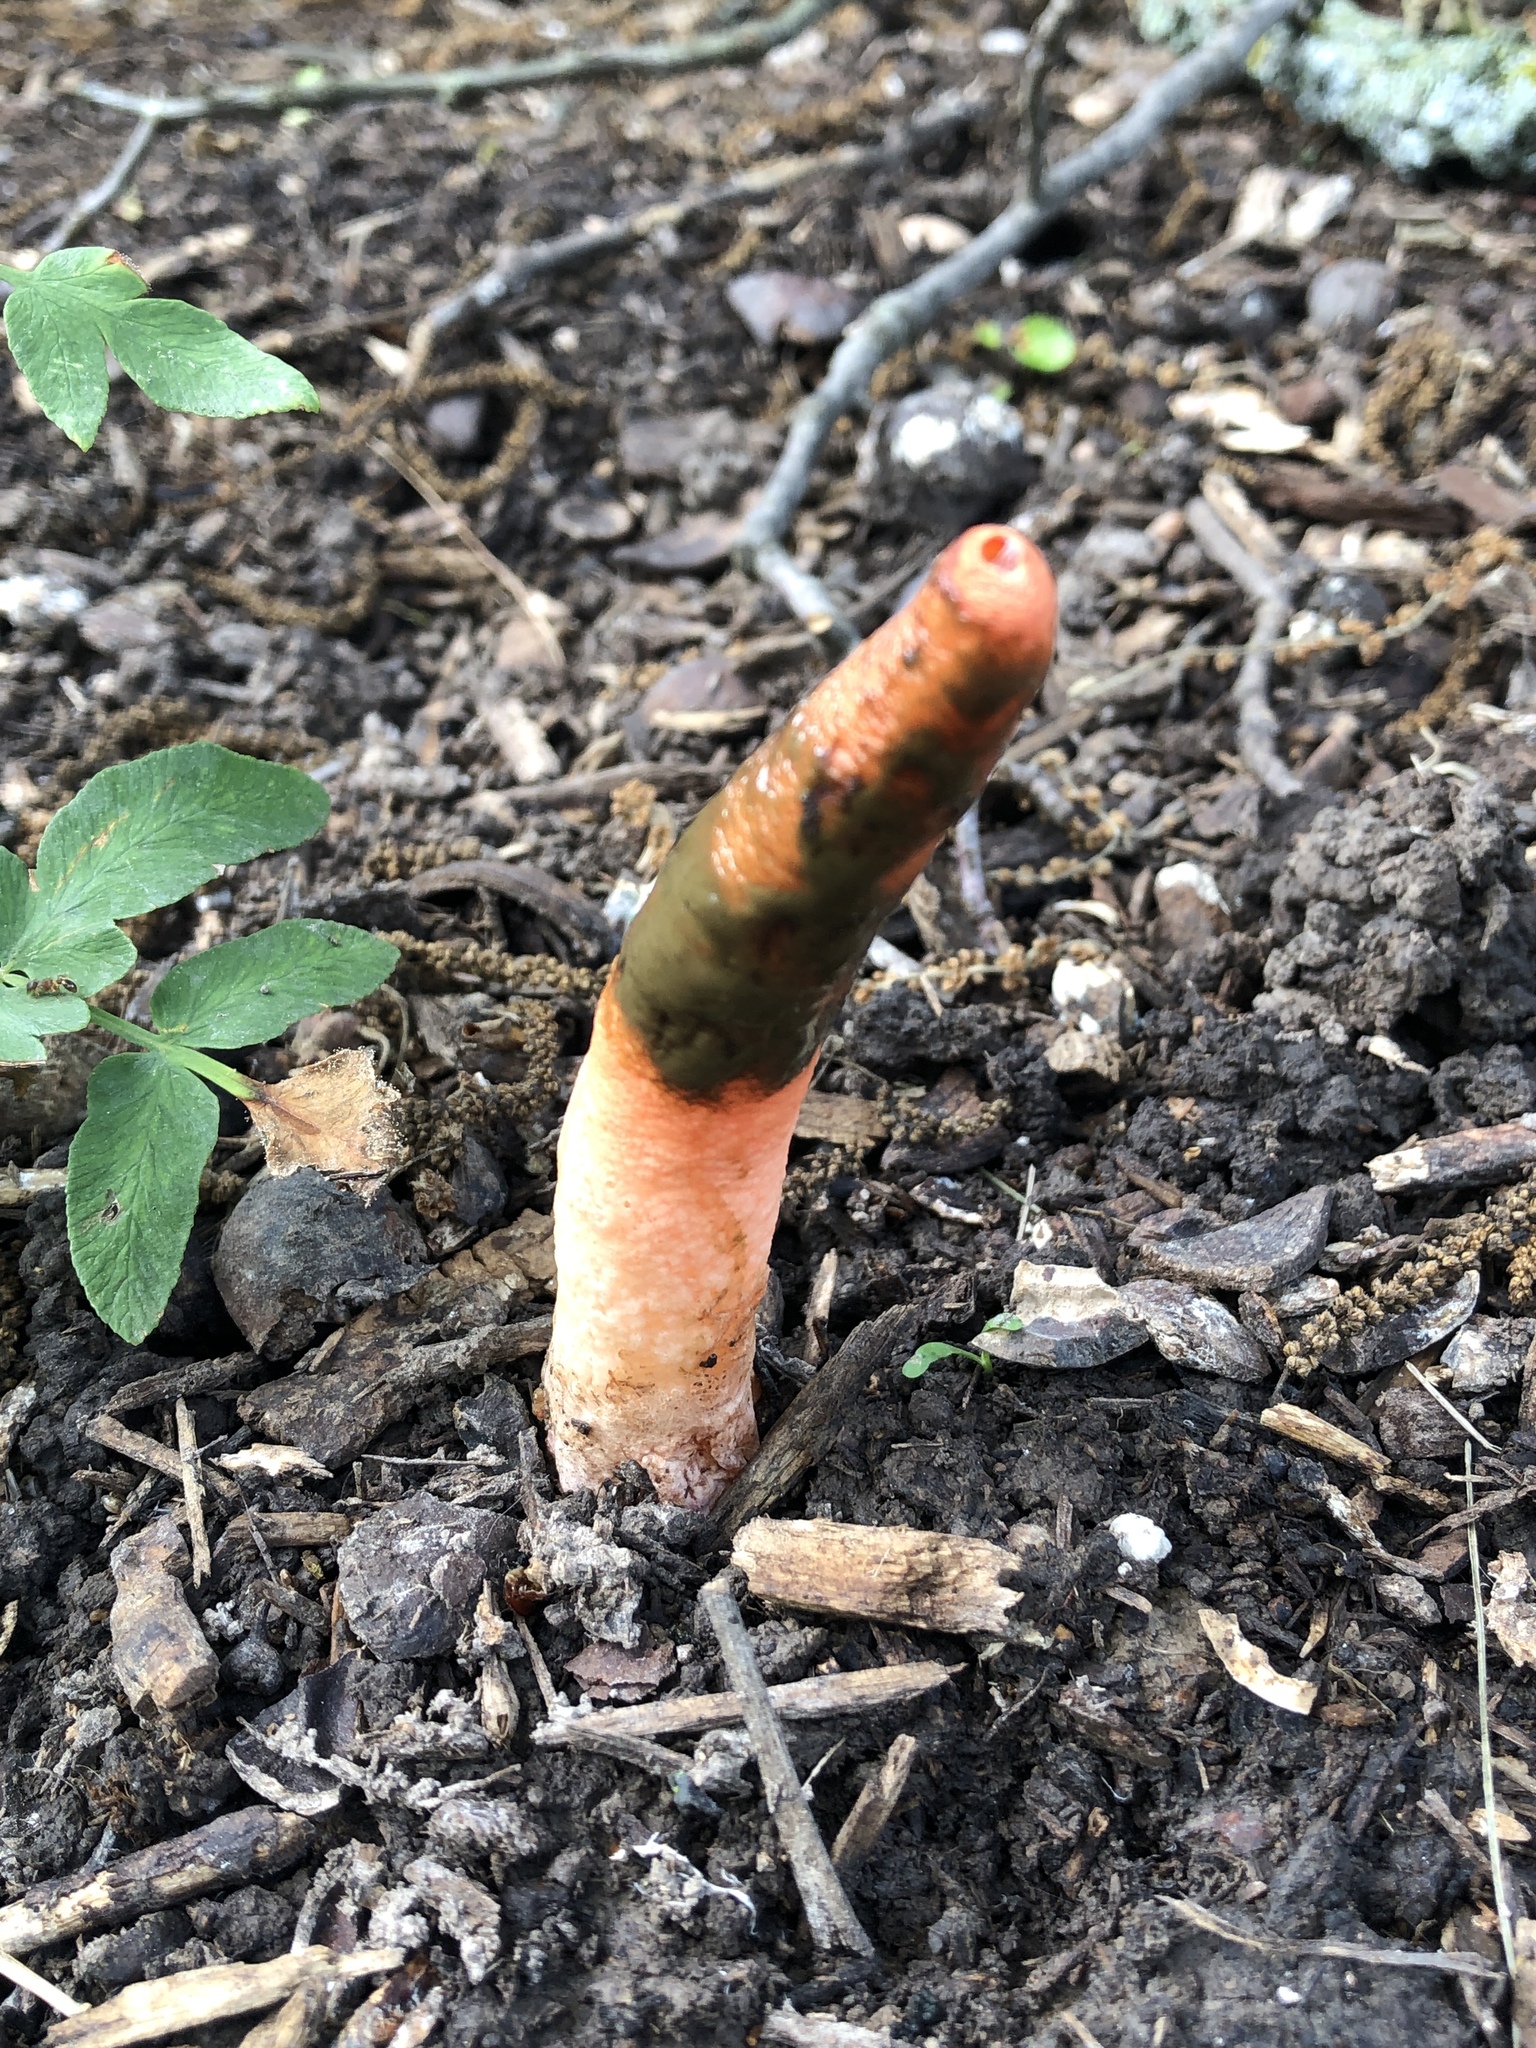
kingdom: Fungi
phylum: Basidiomycota
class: Agaricomycetes
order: Phallales
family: Phallaceae
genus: Mutinus
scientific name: Mutinus elegans
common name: Devil's dipstick
